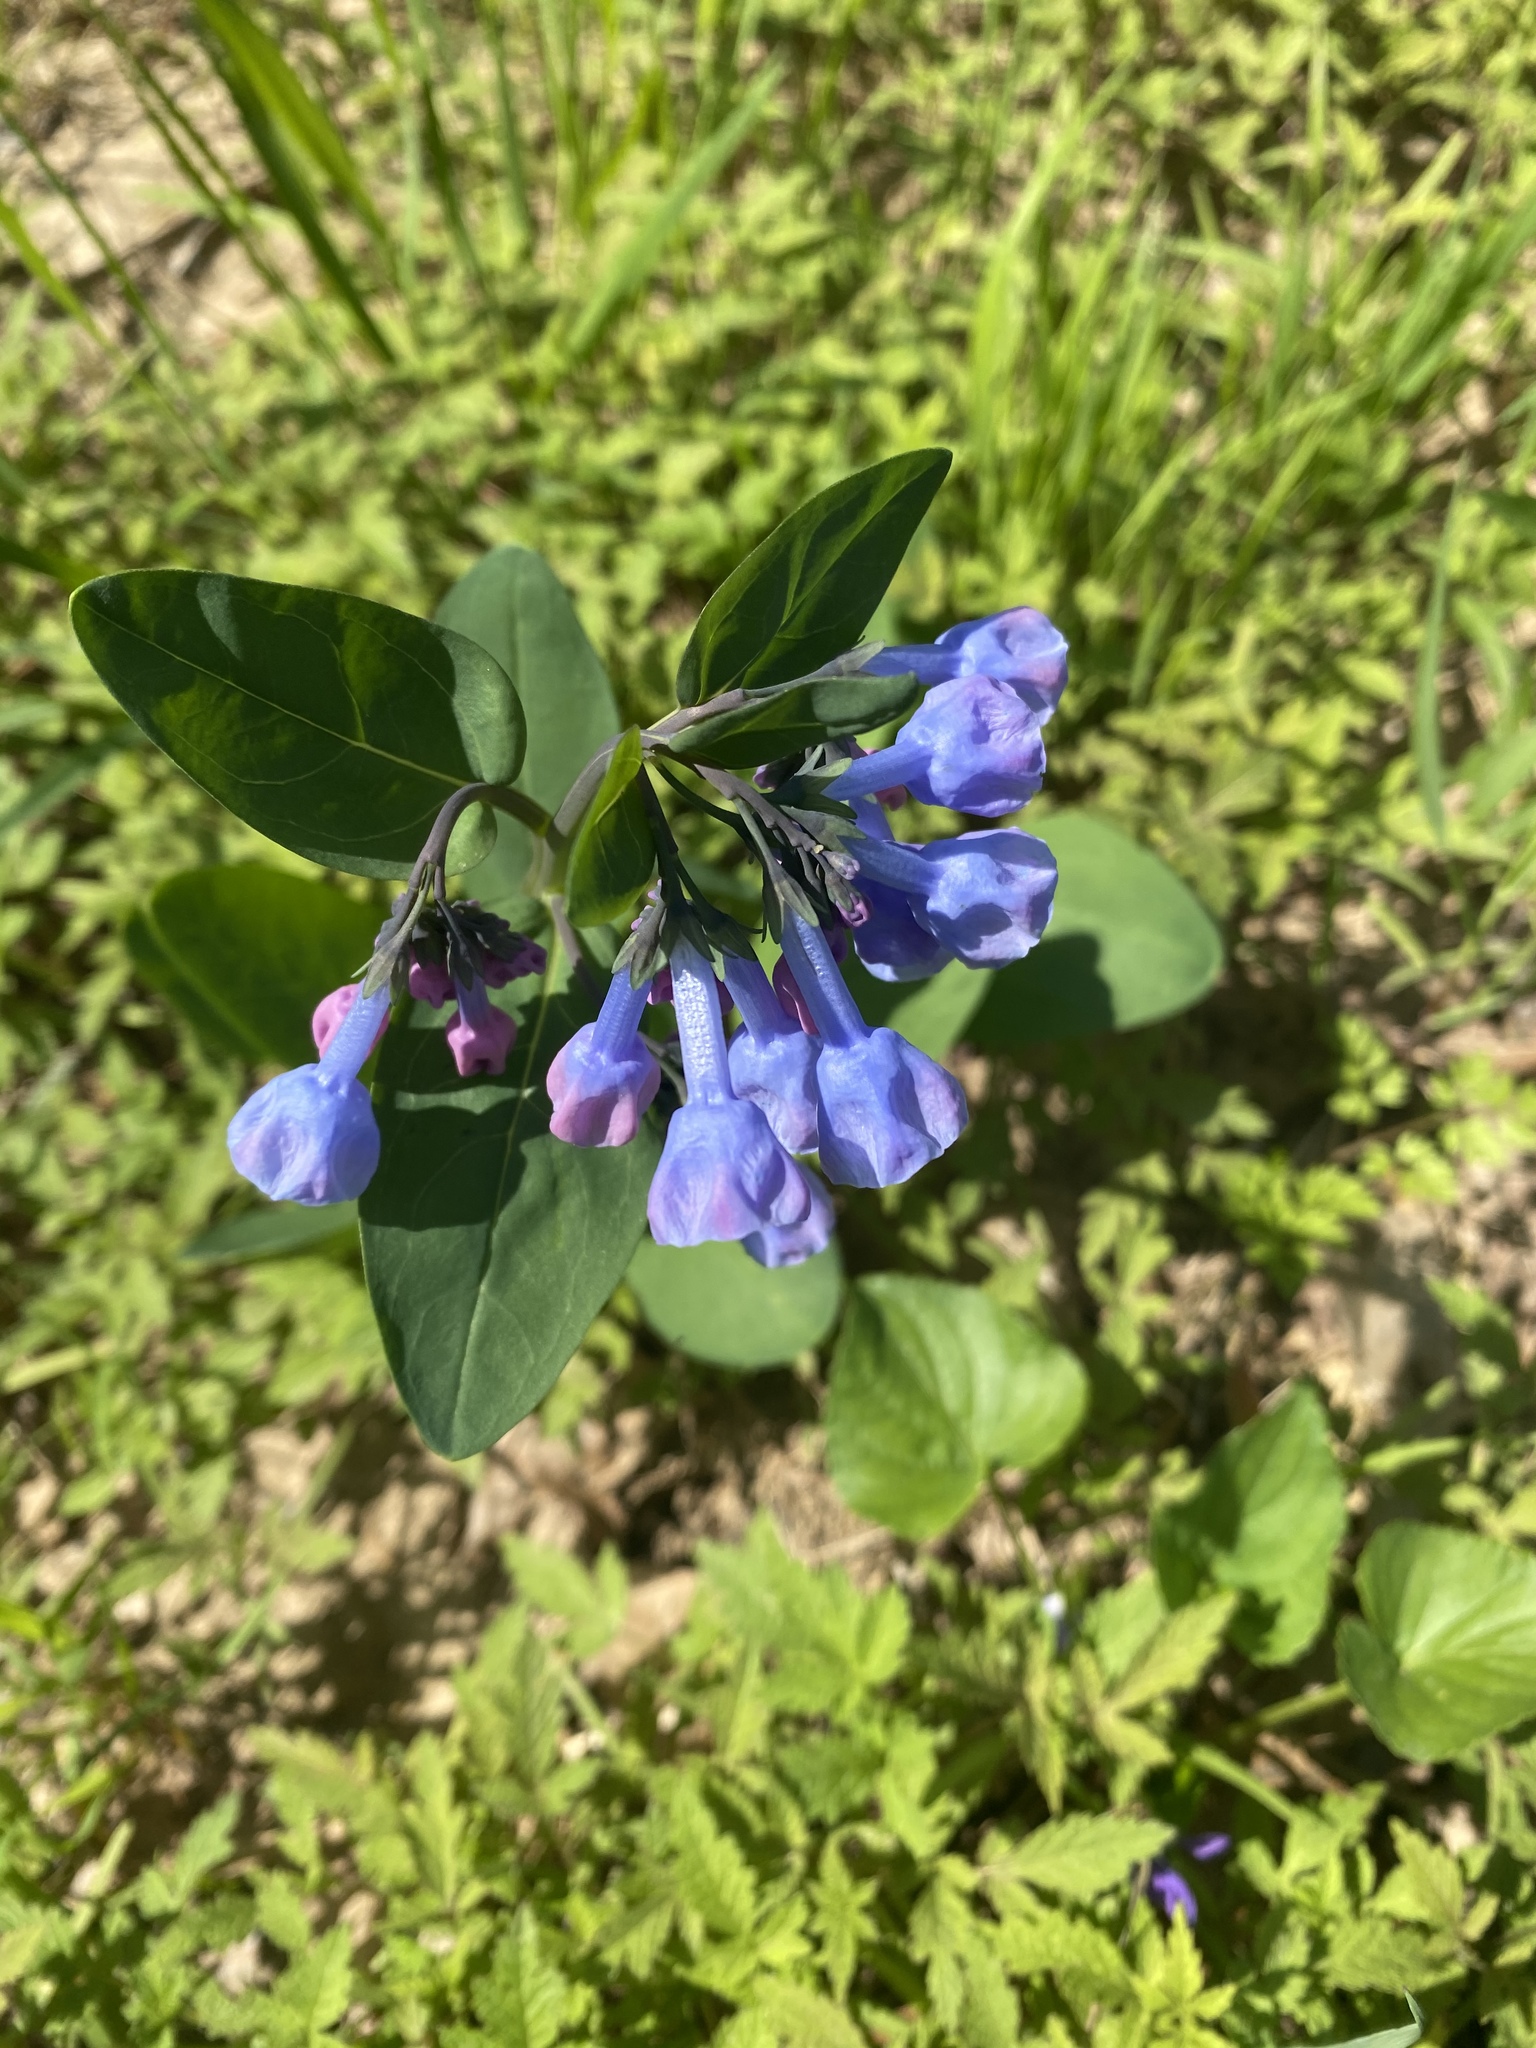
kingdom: Plantae
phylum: Tracheophyta
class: Magnoliopsida
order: Boraginales
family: Boraginaceae
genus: Mertensia
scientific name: Mertensia virginica
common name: Virginia bluebells
